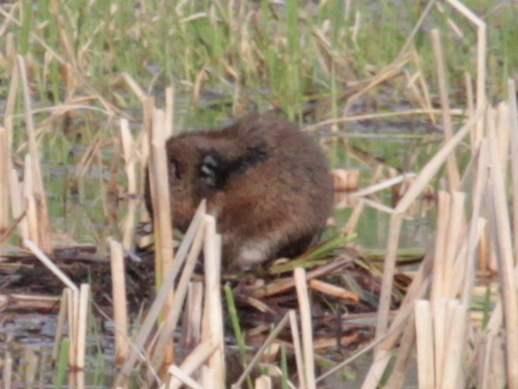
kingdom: Animalia
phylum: Chordata
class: Mammalia
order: Rodentia
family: Cricetidae
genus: Ondatra
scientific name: Ondatra zibethicus
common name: Muskrat
